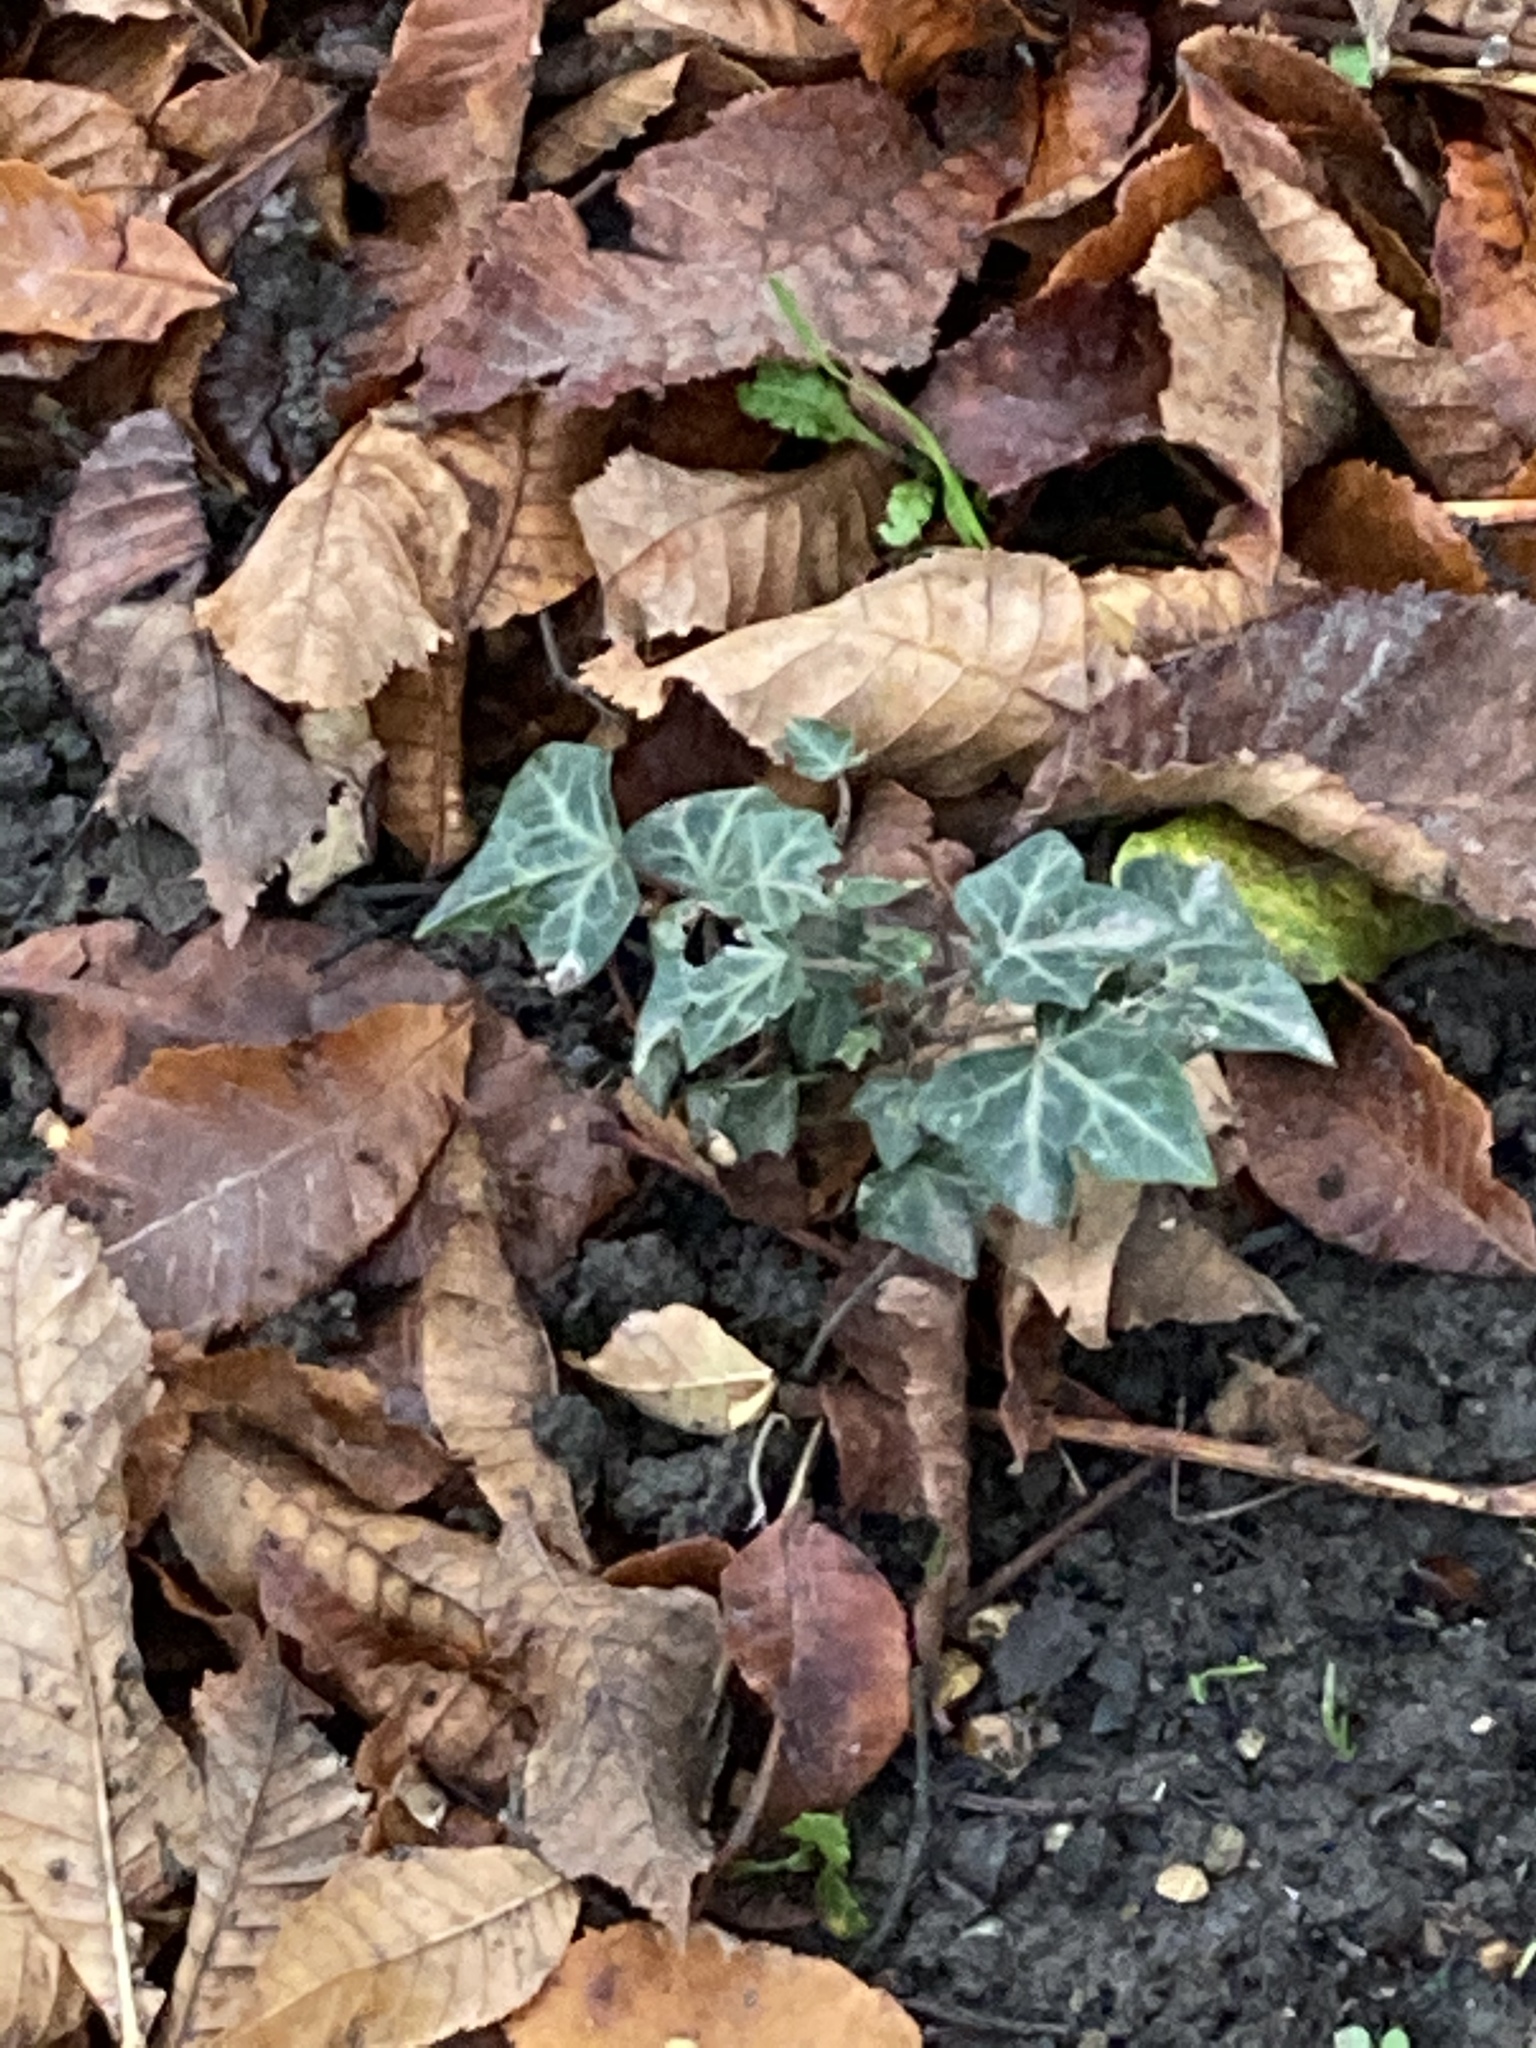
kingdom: Plantae
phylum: Tracheophyta
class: Magnoliopsida
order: Apiales
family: Araliaceae
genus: Hedera
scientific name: Hedera helix
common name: Ivy
